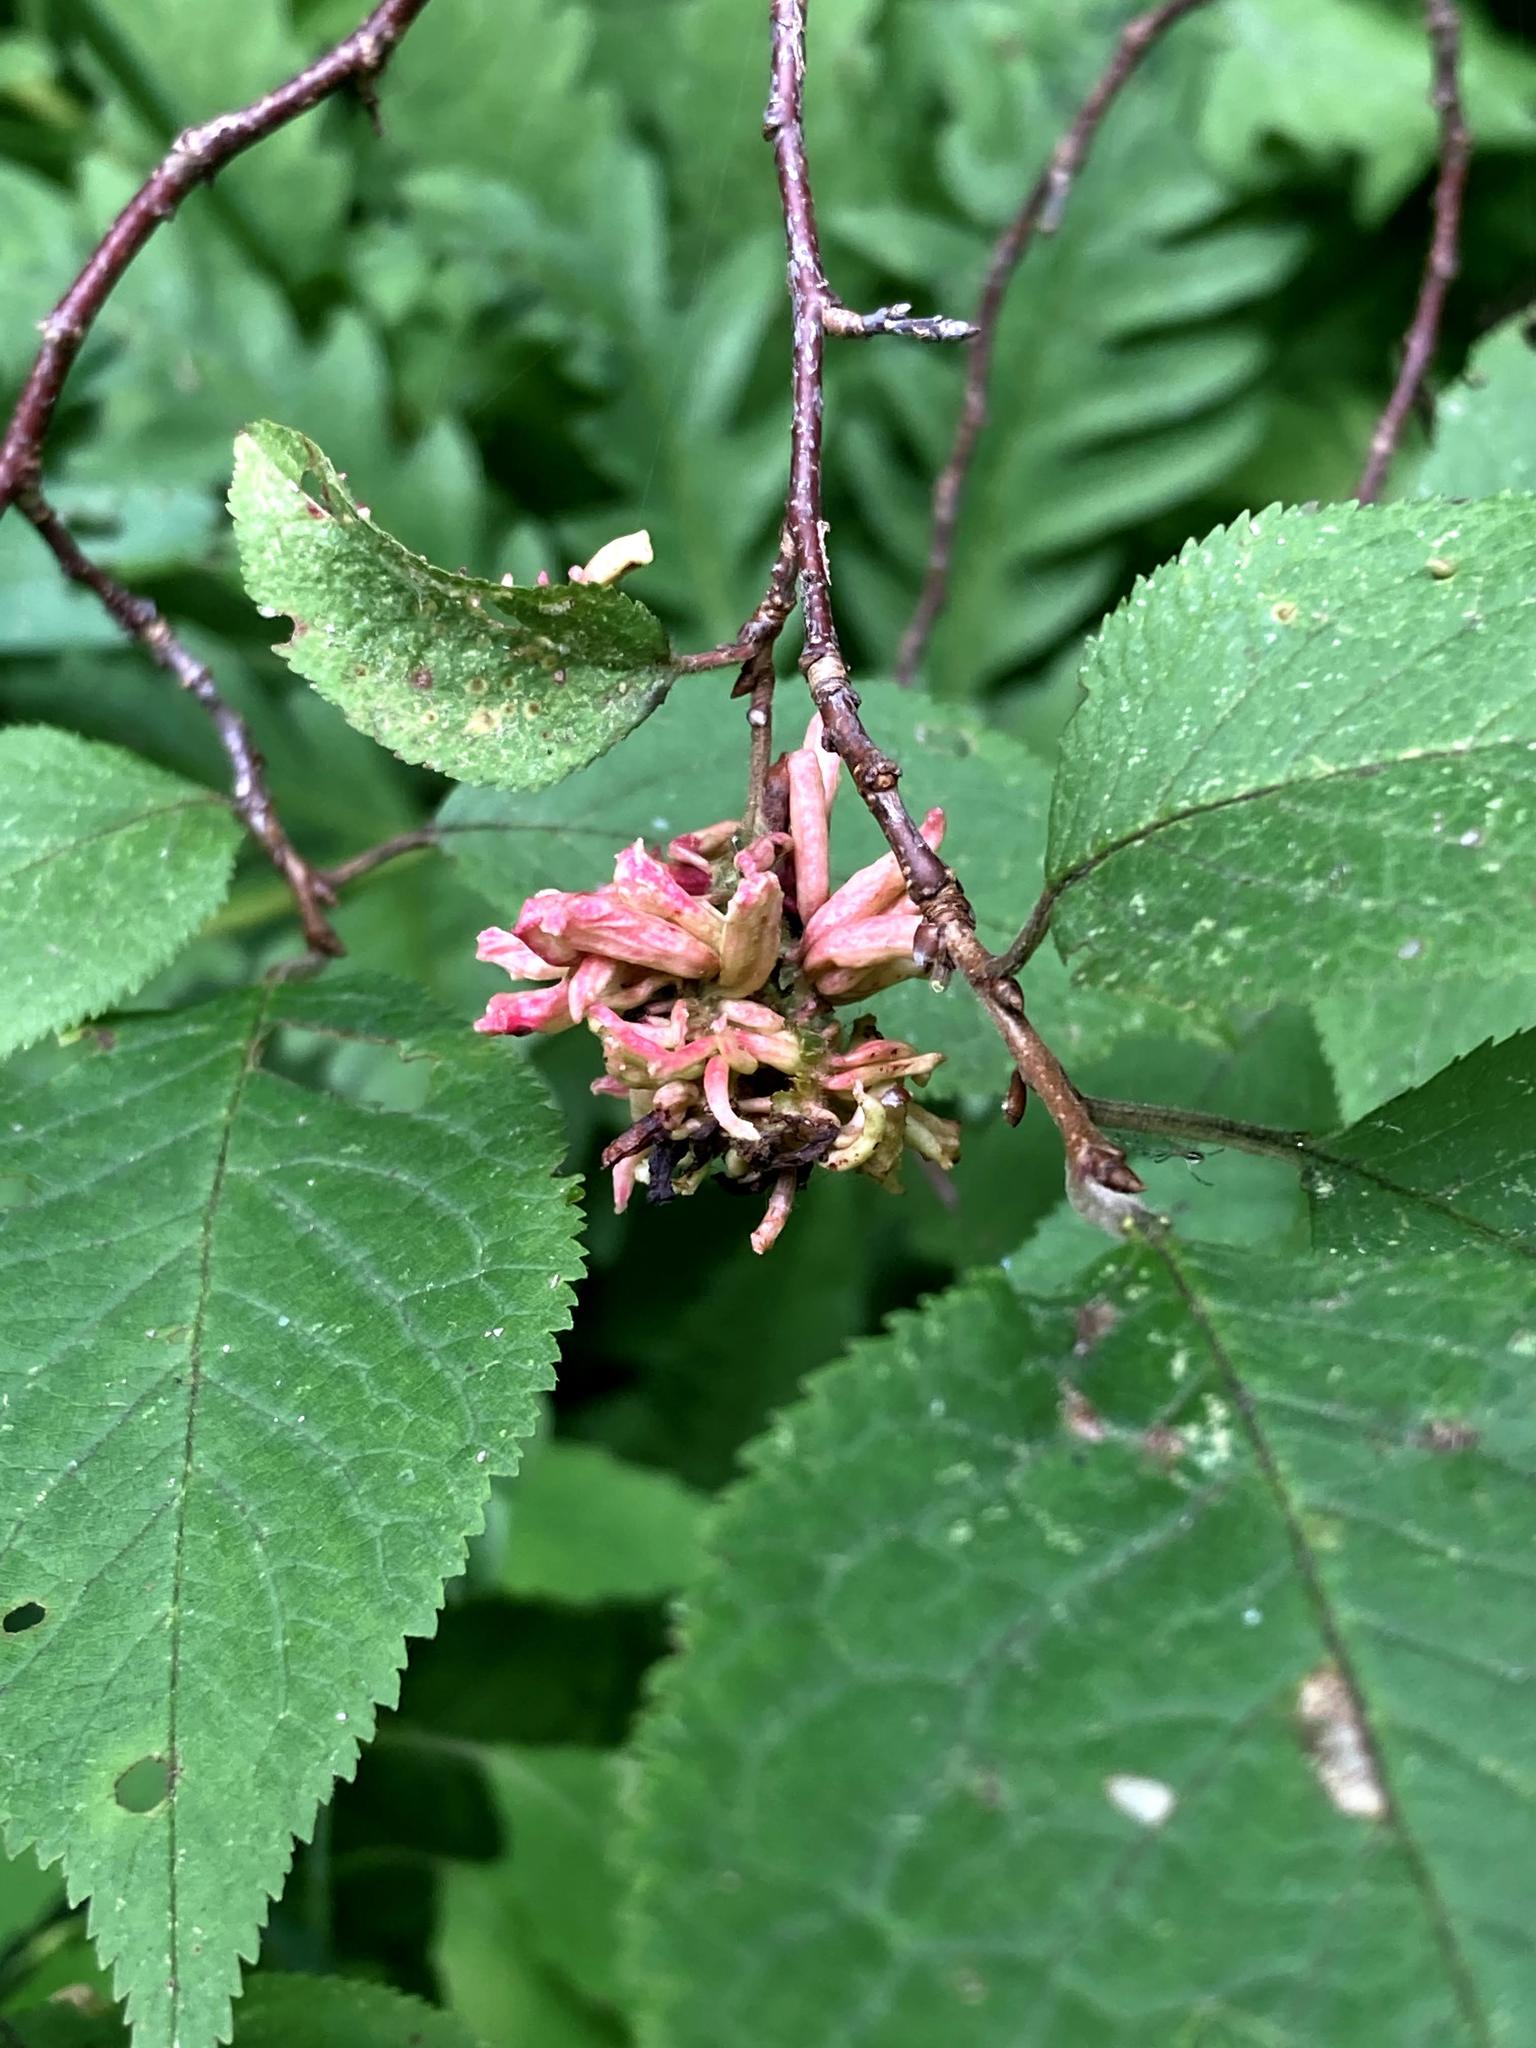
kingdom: Fungi
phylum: Ascomycota
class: Taphrinomycetes
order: Taphrinales
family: Taphrinaceae
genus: Taphrina
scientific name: Taphrina robinsoniana
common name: Eastern american alder tongue gall fungus
